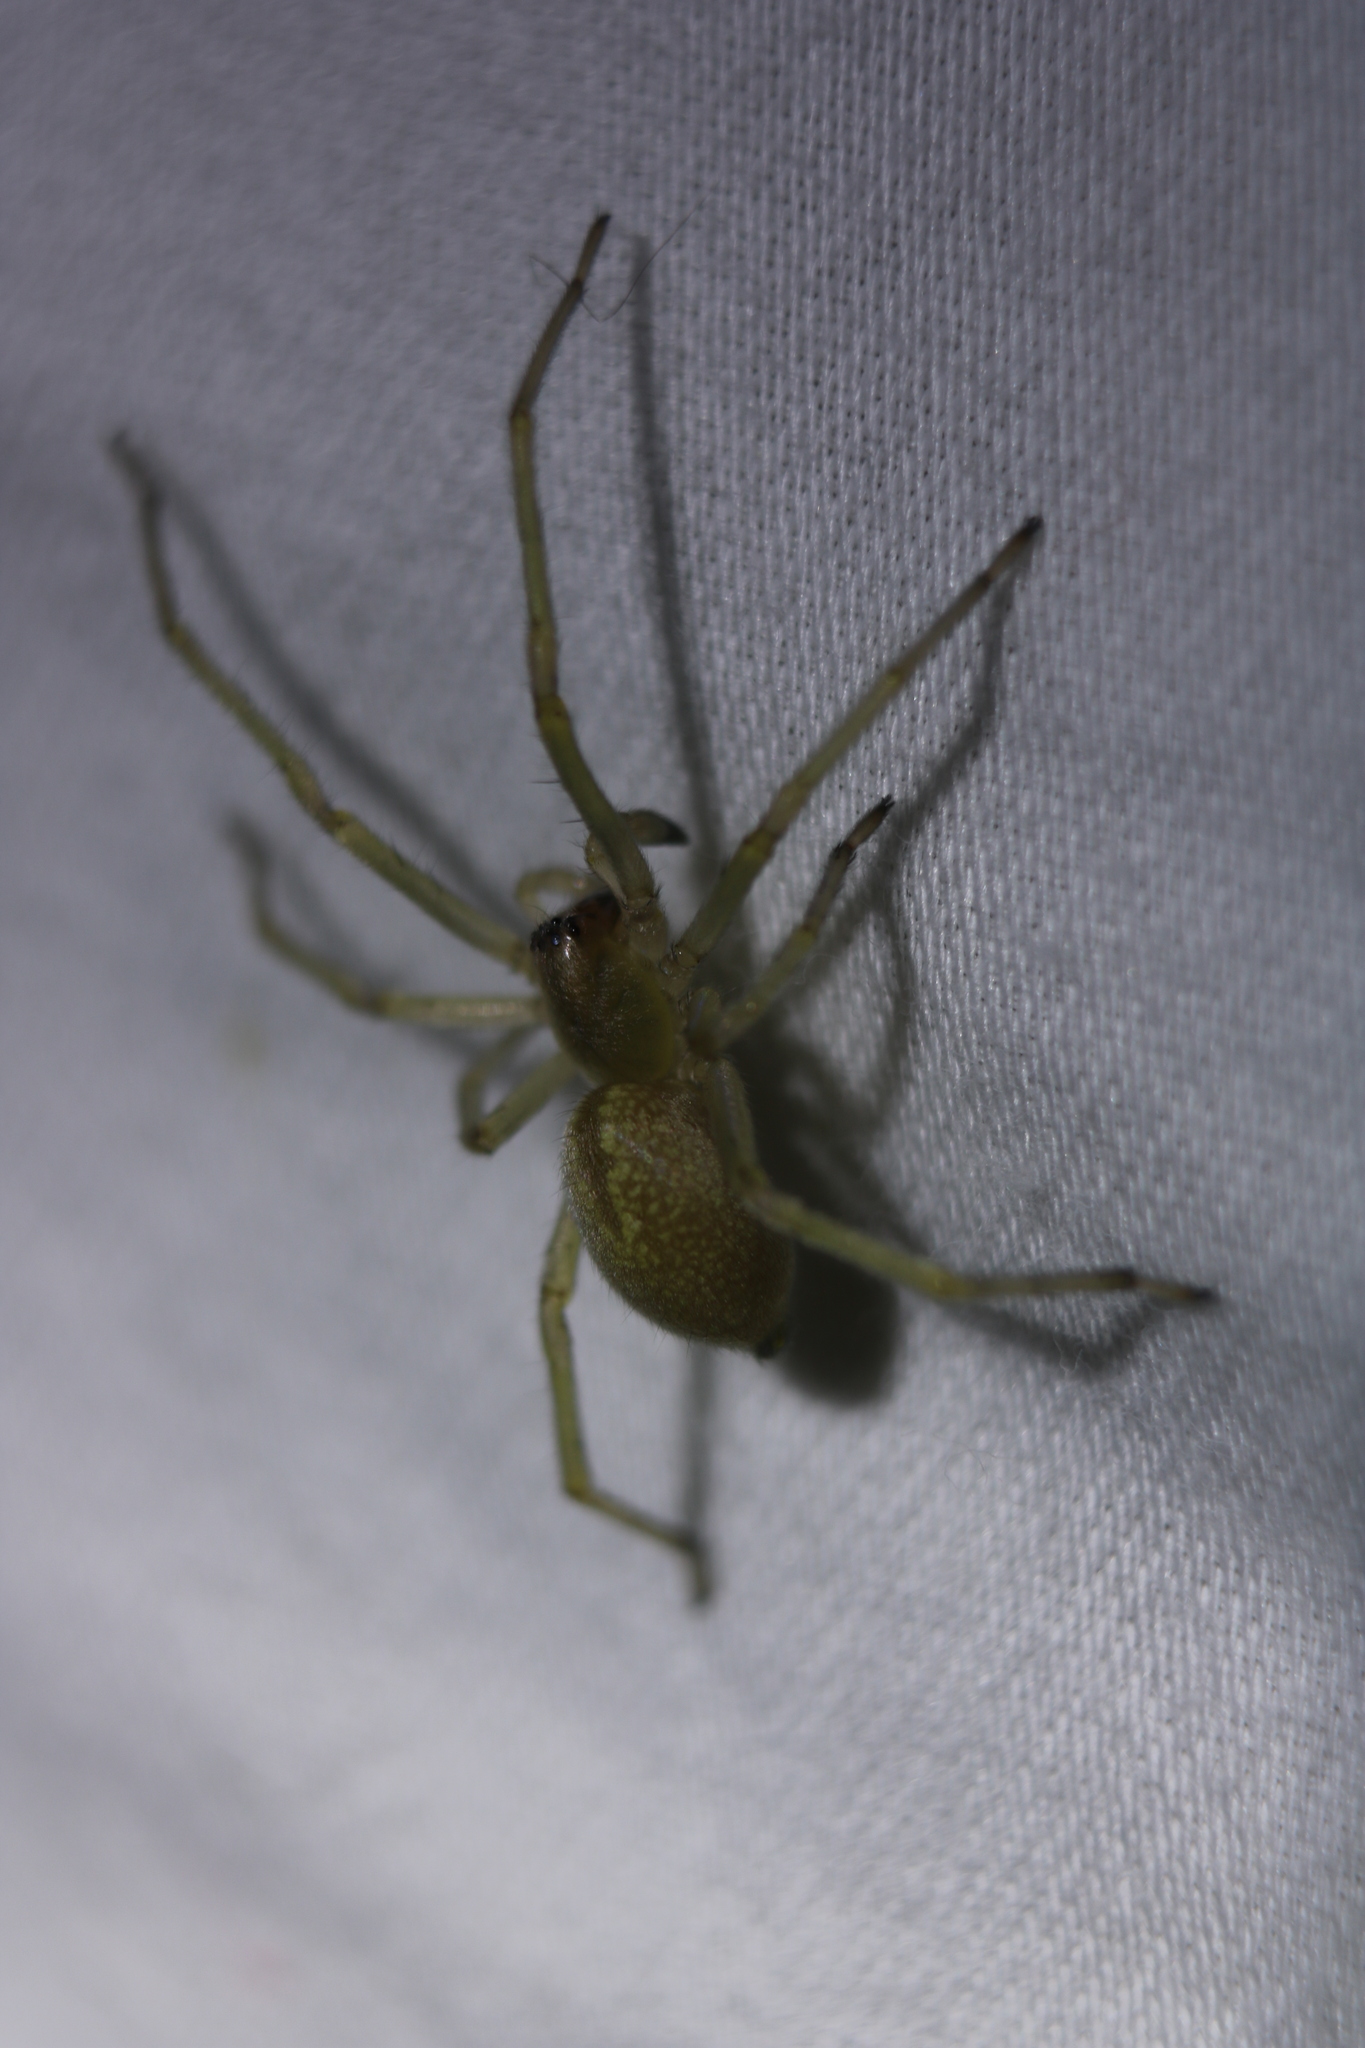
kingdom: Animalia
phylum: Arthropoda
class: Arachnida
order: Araneae
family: Cheiracanthiidae
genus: Cheiracanthium
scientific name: Cheiracanthium mildei
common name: Northern yellow sac spider
